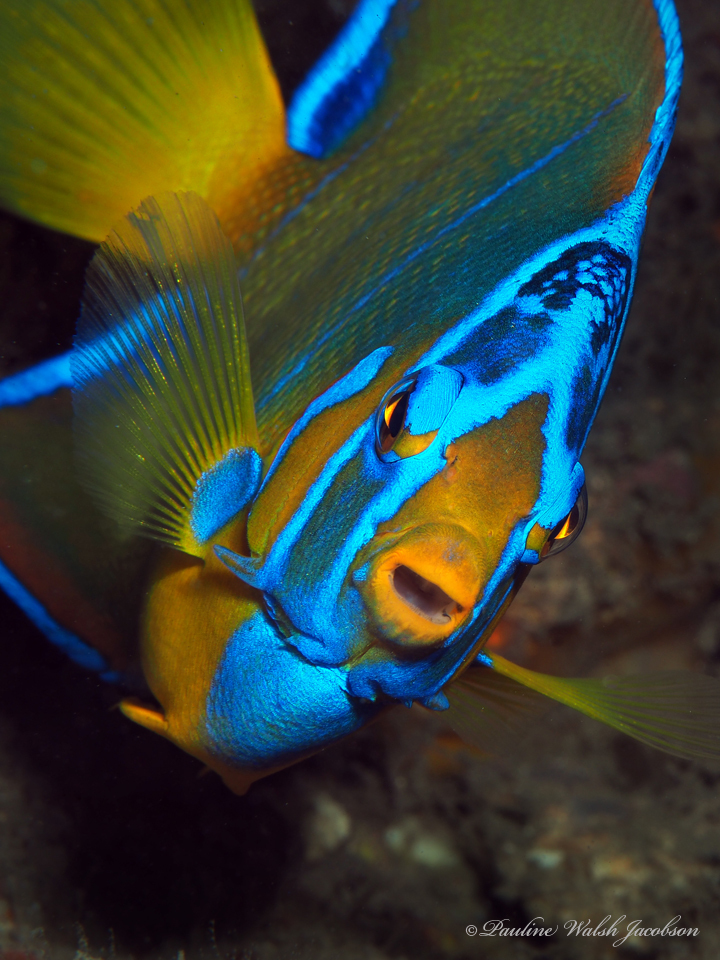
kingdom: Animalia
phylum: Chordata
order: Perciformes
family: Pomacanthidae
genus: Holacanthus
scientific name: Holacanthus ciliaris
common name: Queen angelfish
